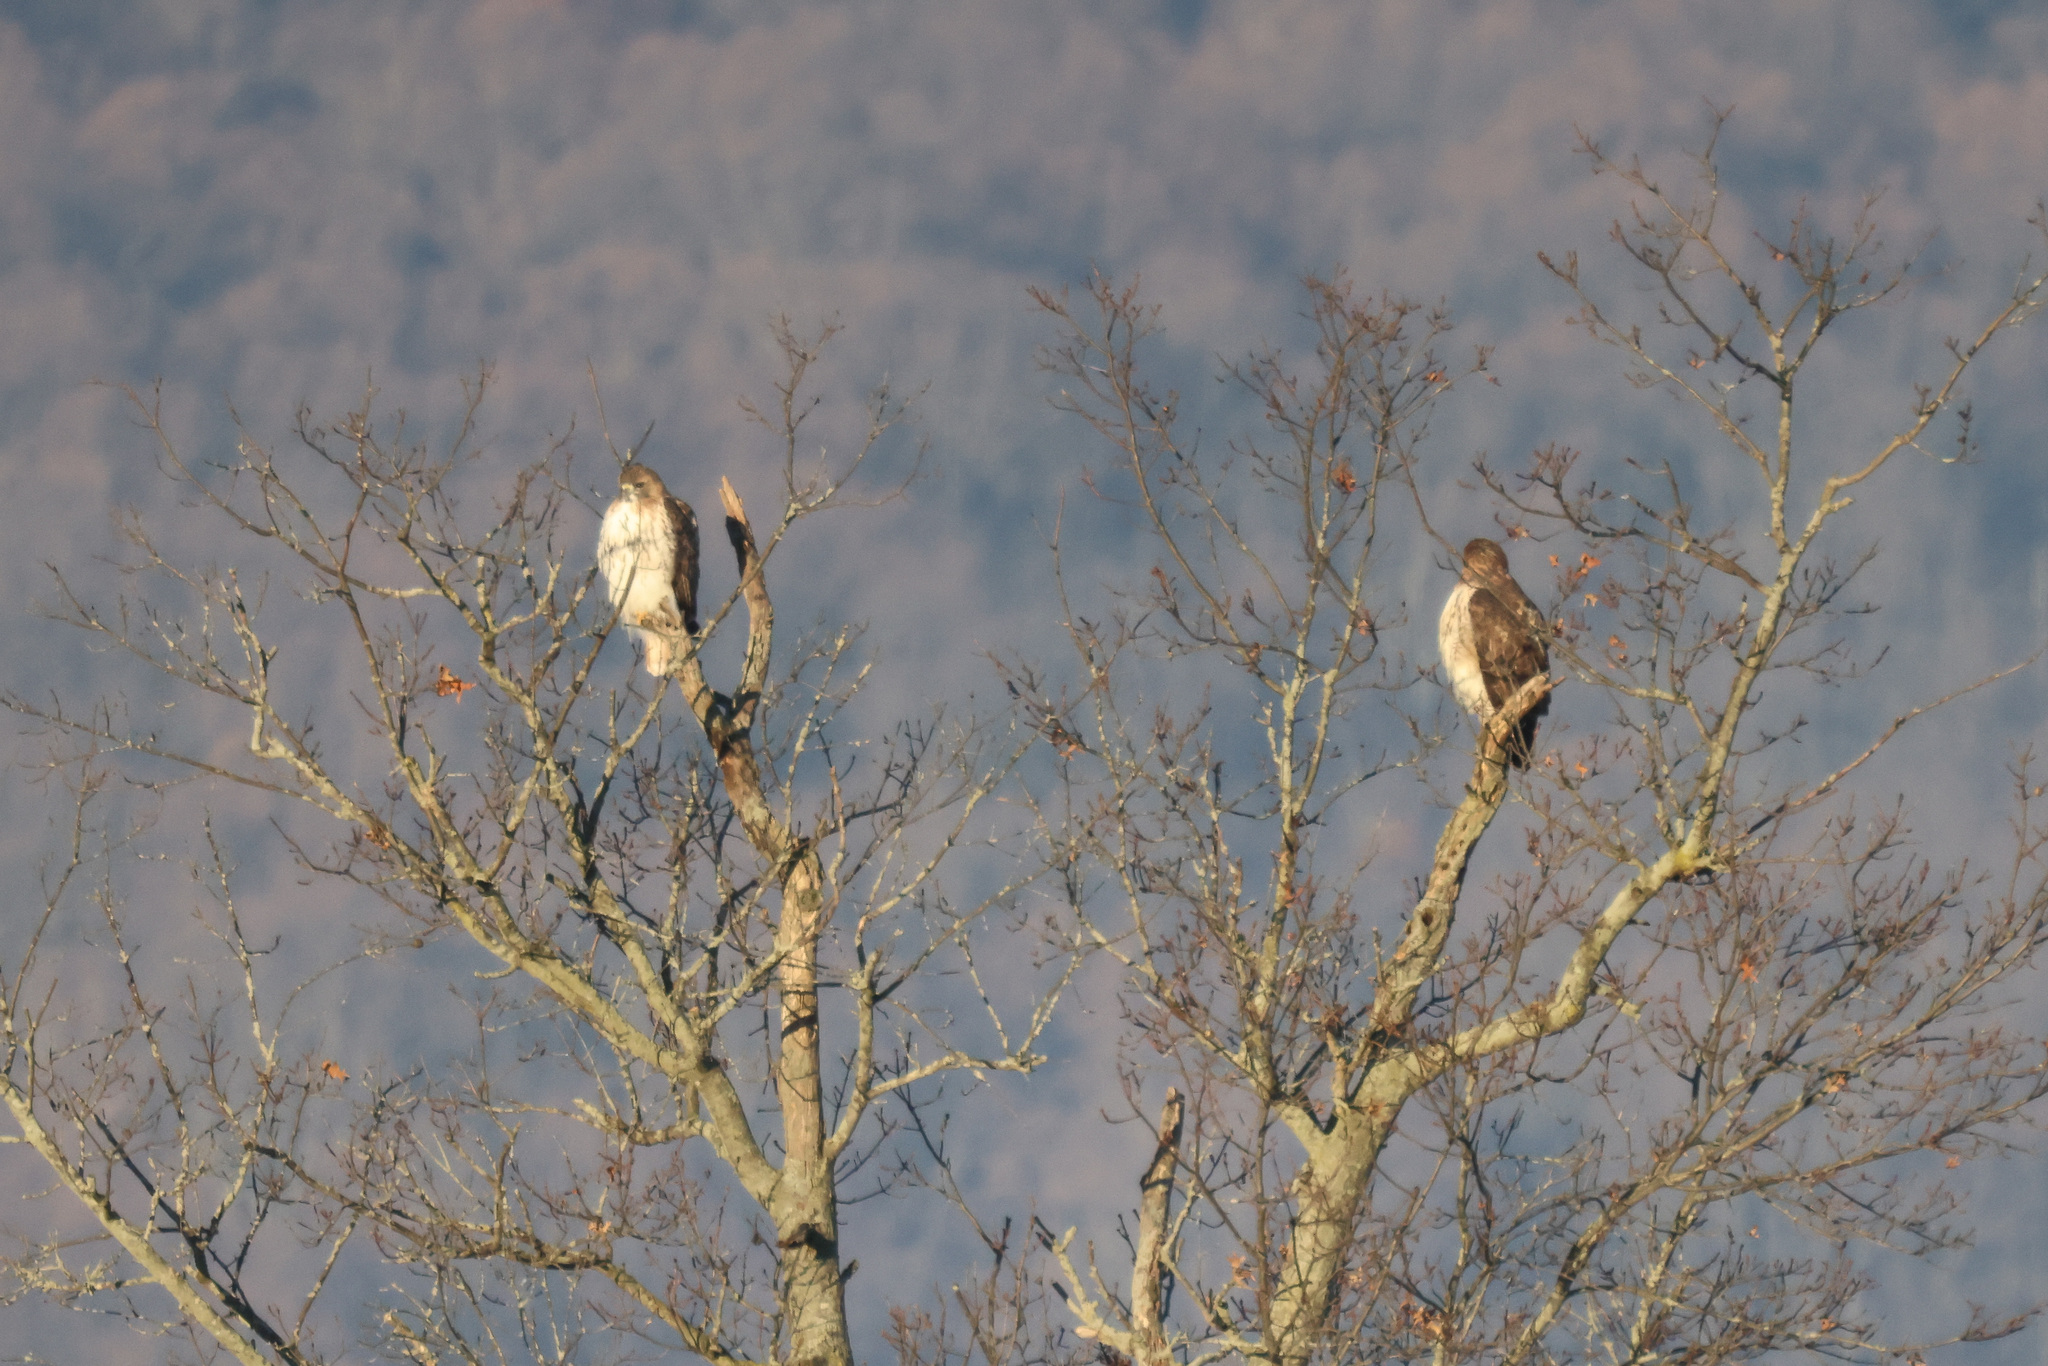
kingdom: Animalia
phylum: Chordata
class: Aves
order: Accipitriformes
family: Accipitridae
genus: Buteo
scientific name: Buteo jamaicensis
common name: Red-tailed hawk
